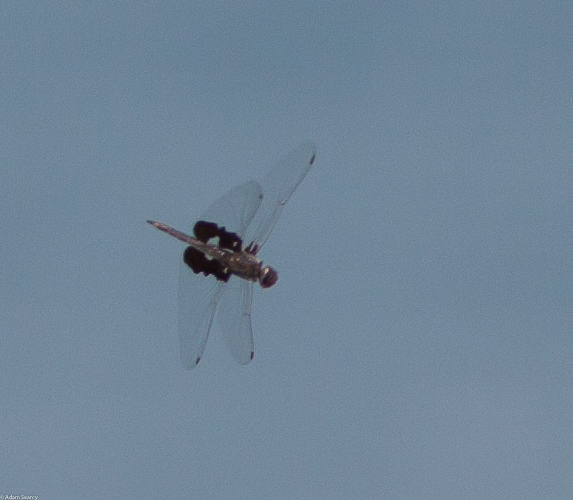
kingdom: Animalia
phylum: Arthropoda
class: Insecta
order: Odonata
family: Libellulidae
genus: Tramea
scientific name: Tramea lacerata
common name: Black saddlebags
